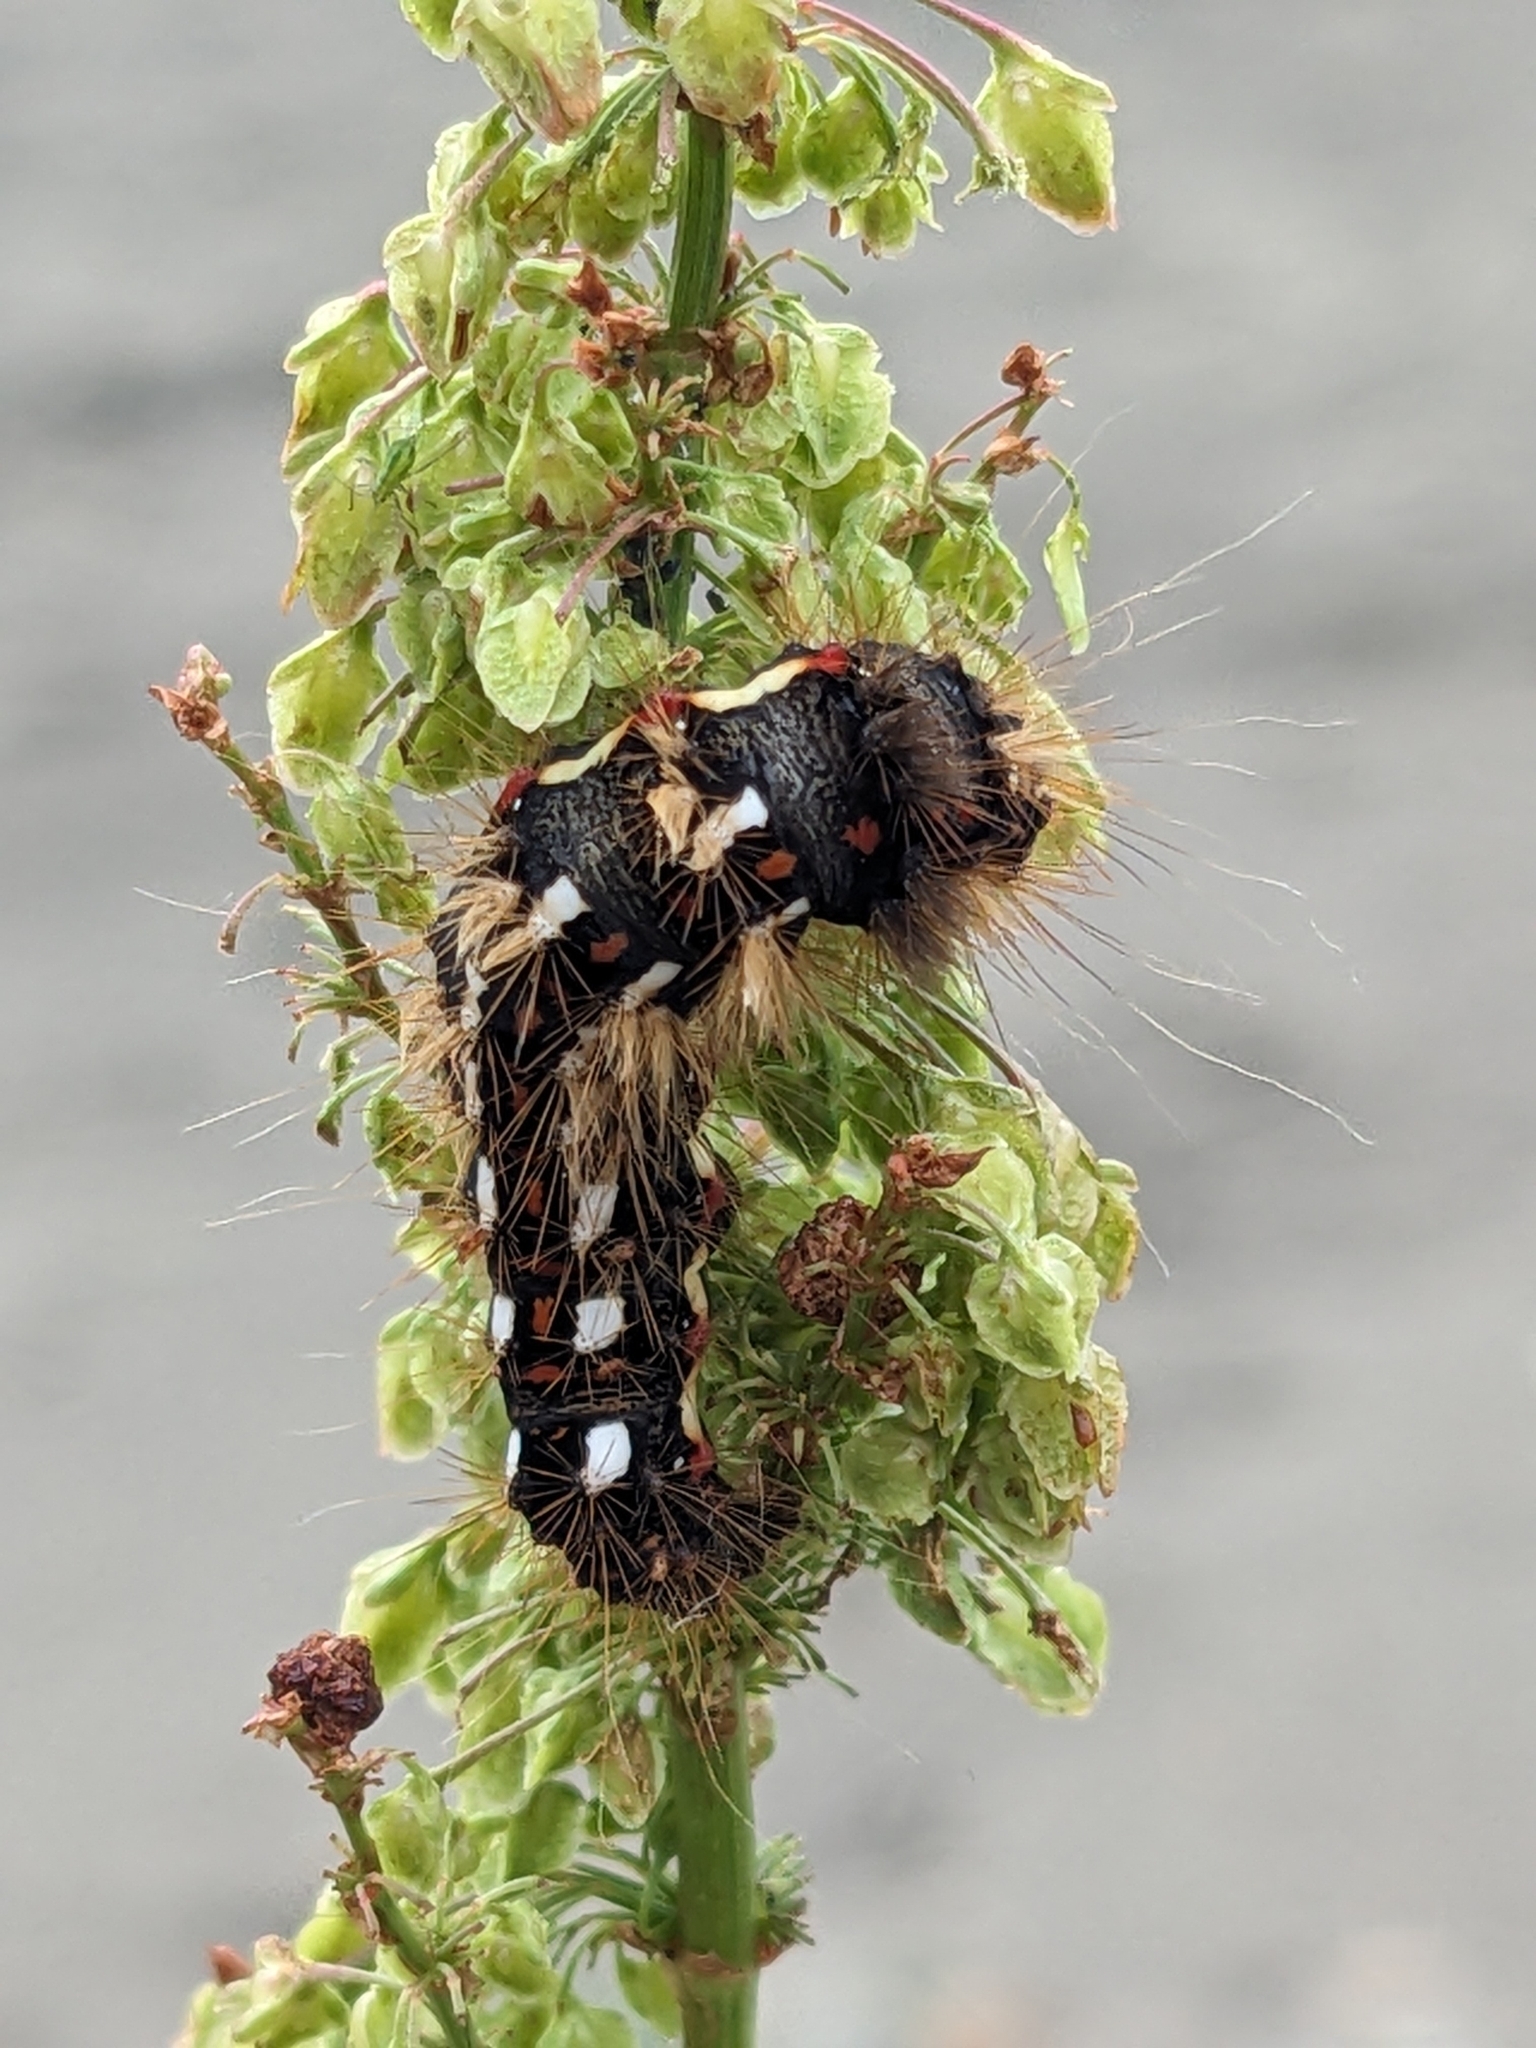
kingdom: Animalia
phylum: Arthropoda
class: Insecta
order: Lepidoptera
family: Noctuidae
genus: Acronicta
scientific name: Acronicta rumicis
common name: Knot grass
